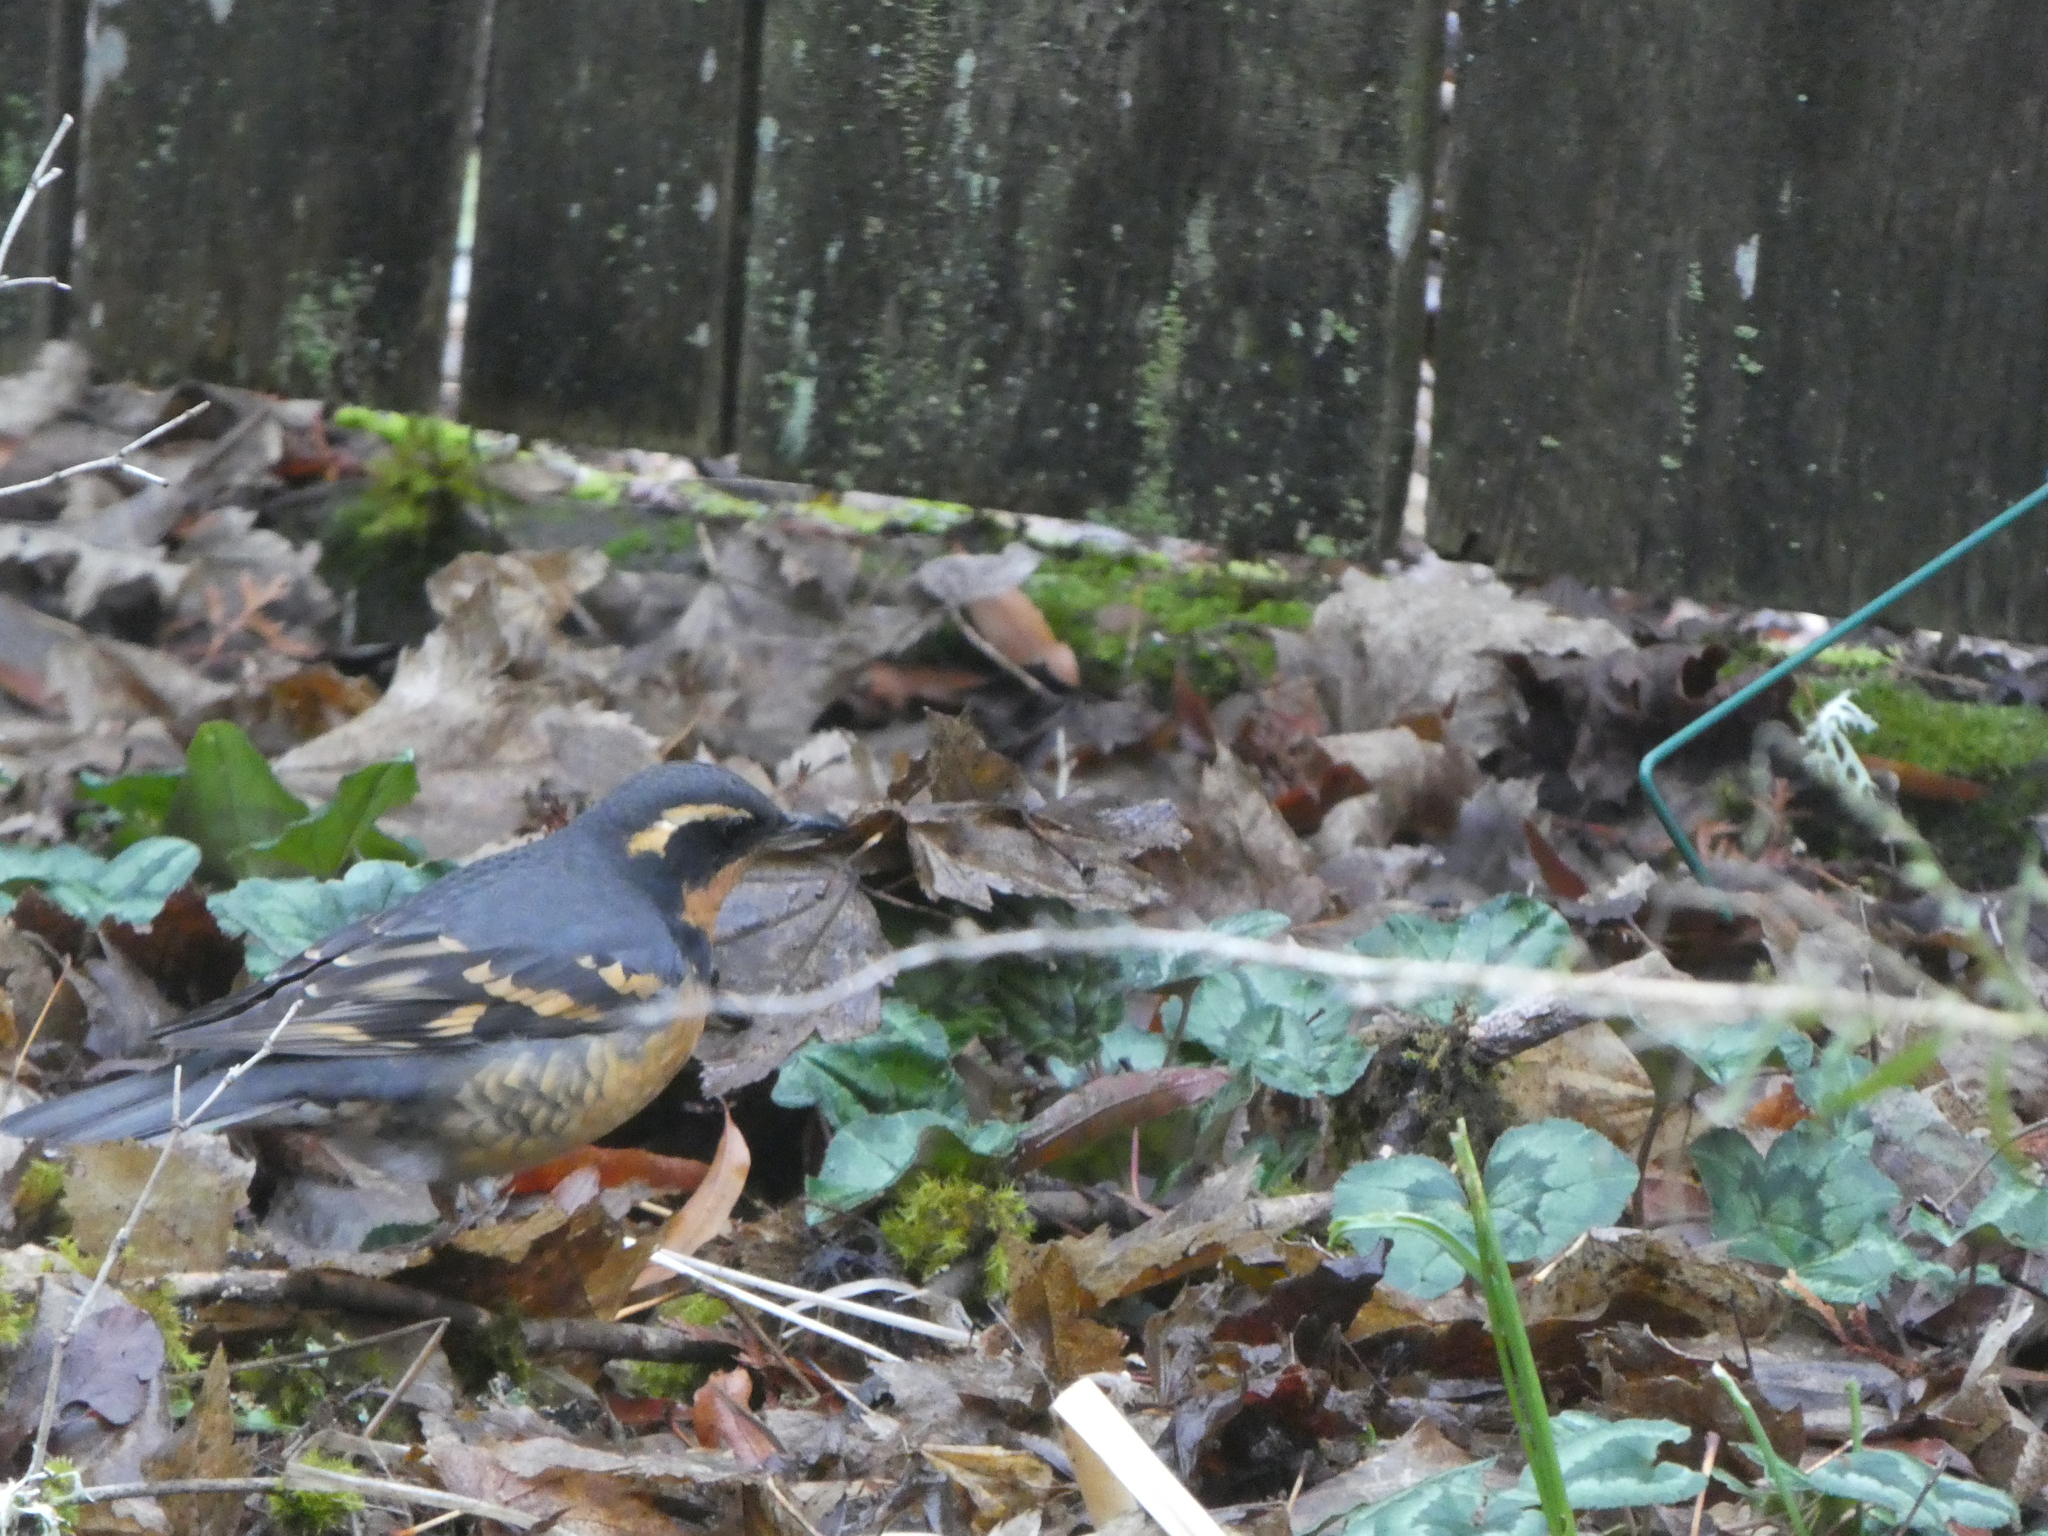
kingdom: Animalia
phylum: Chordata
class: Aves
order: Passeriformes
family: Turdidae
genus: Ixoreus
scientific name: Ixoreus naevius
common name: Varied thrush
